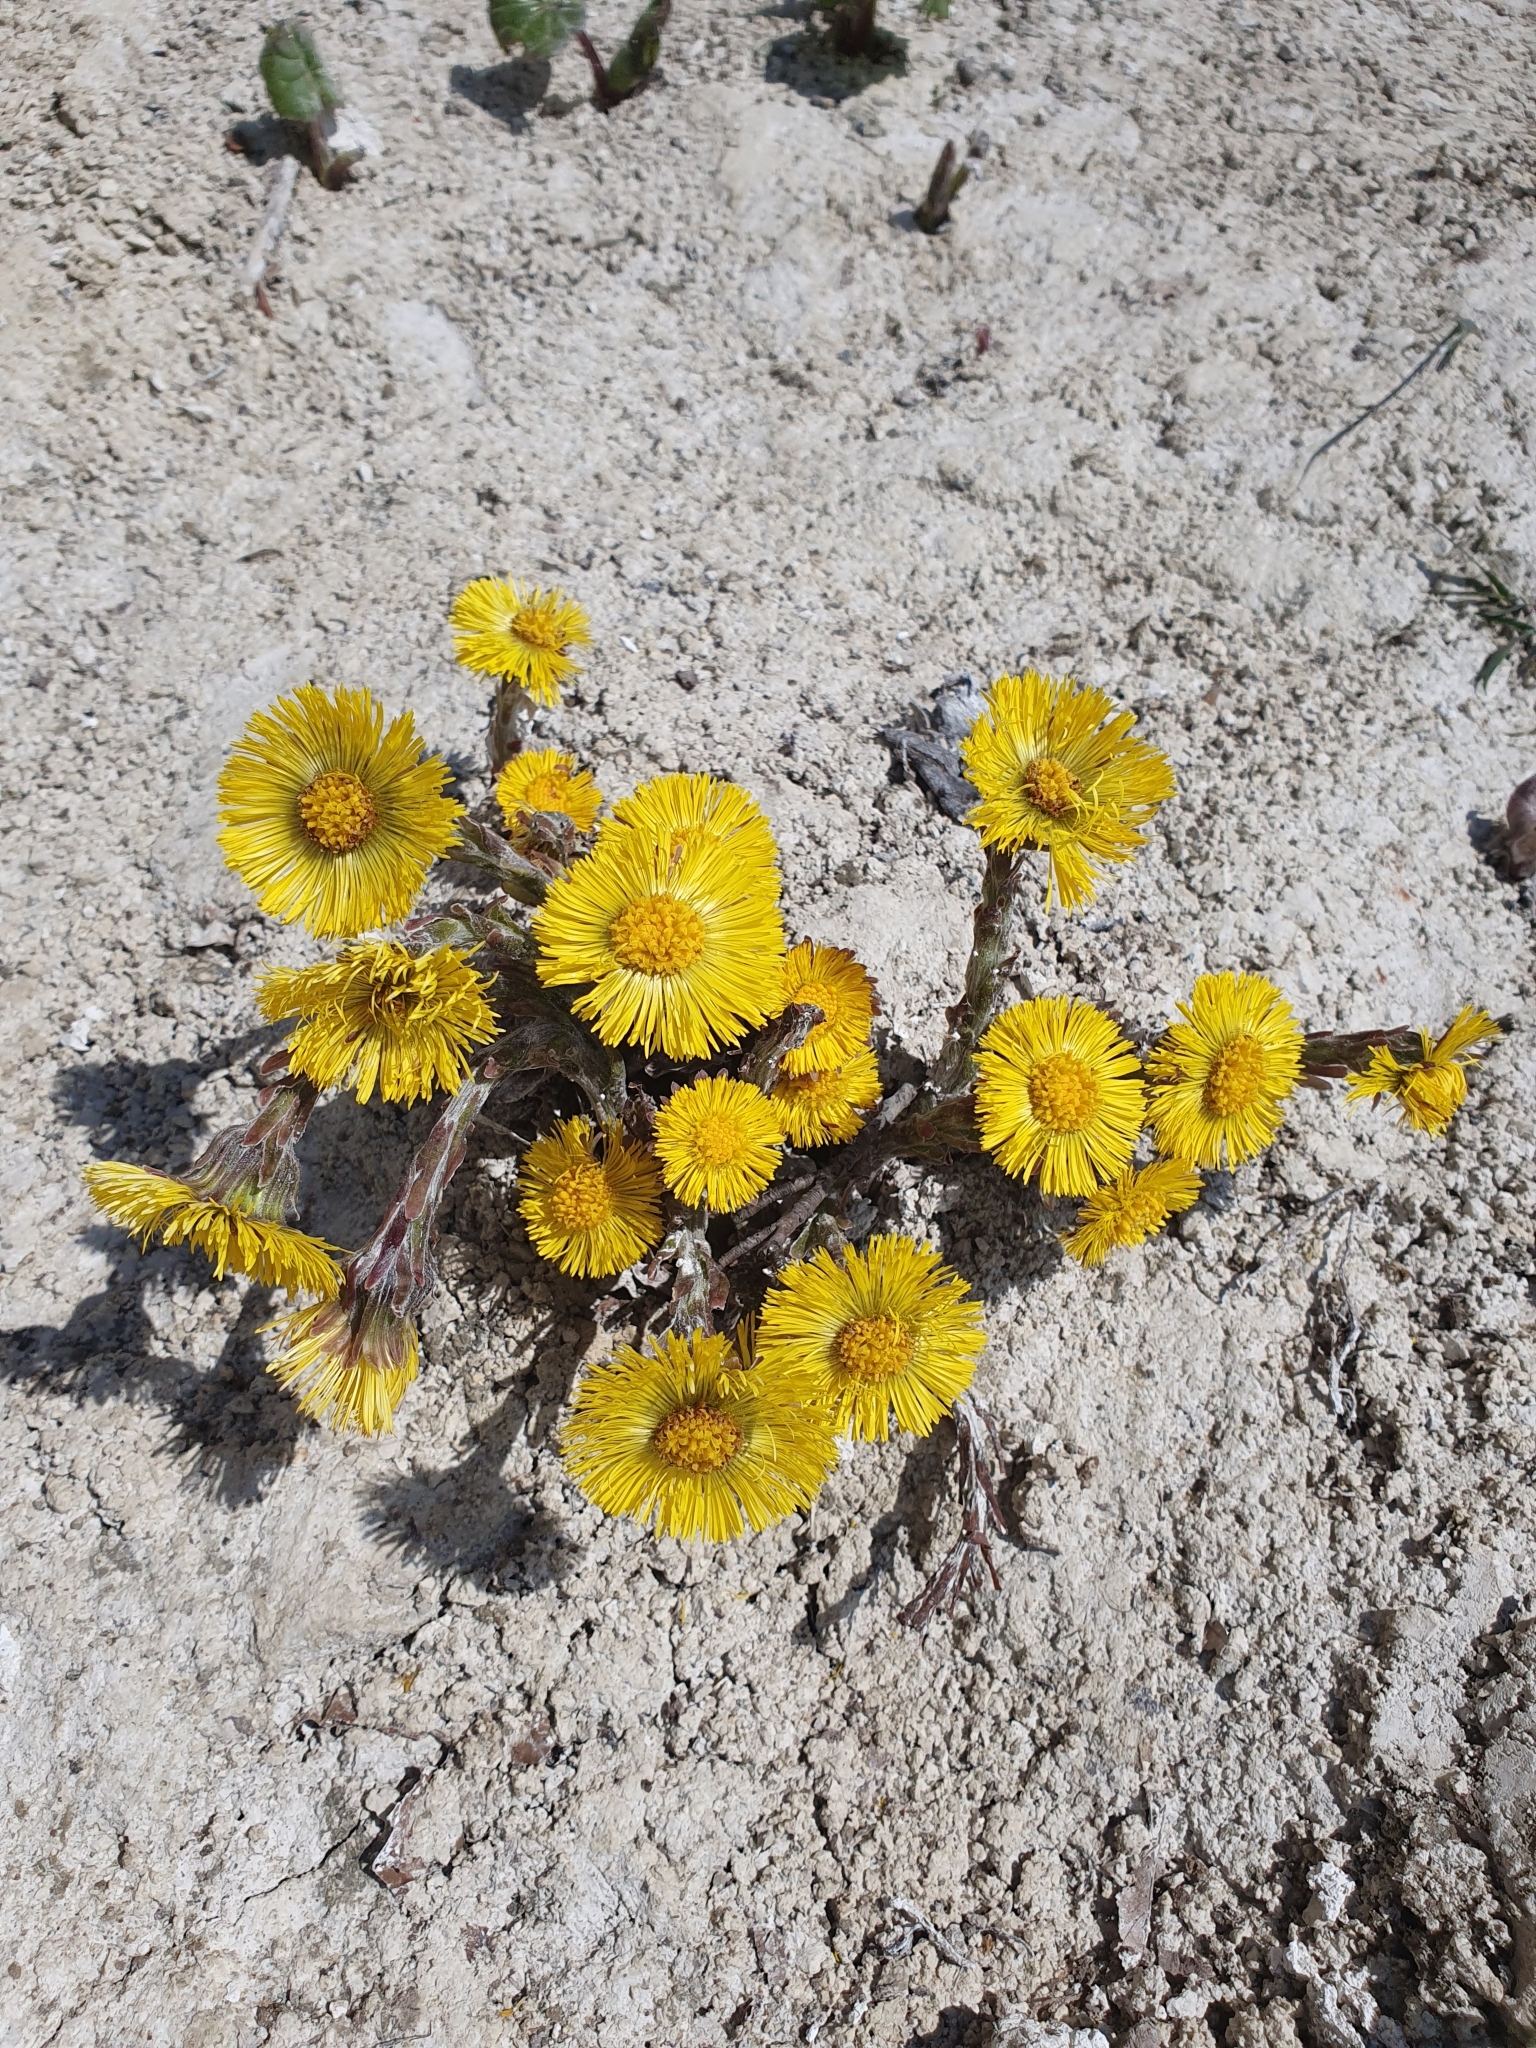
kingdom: Plantae
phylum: Tracheophyta
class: Magnoliopsida
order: Asterales
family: Asteraceae
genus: Tussilago
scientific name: Tussilago farfara
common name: Coltsfoot
